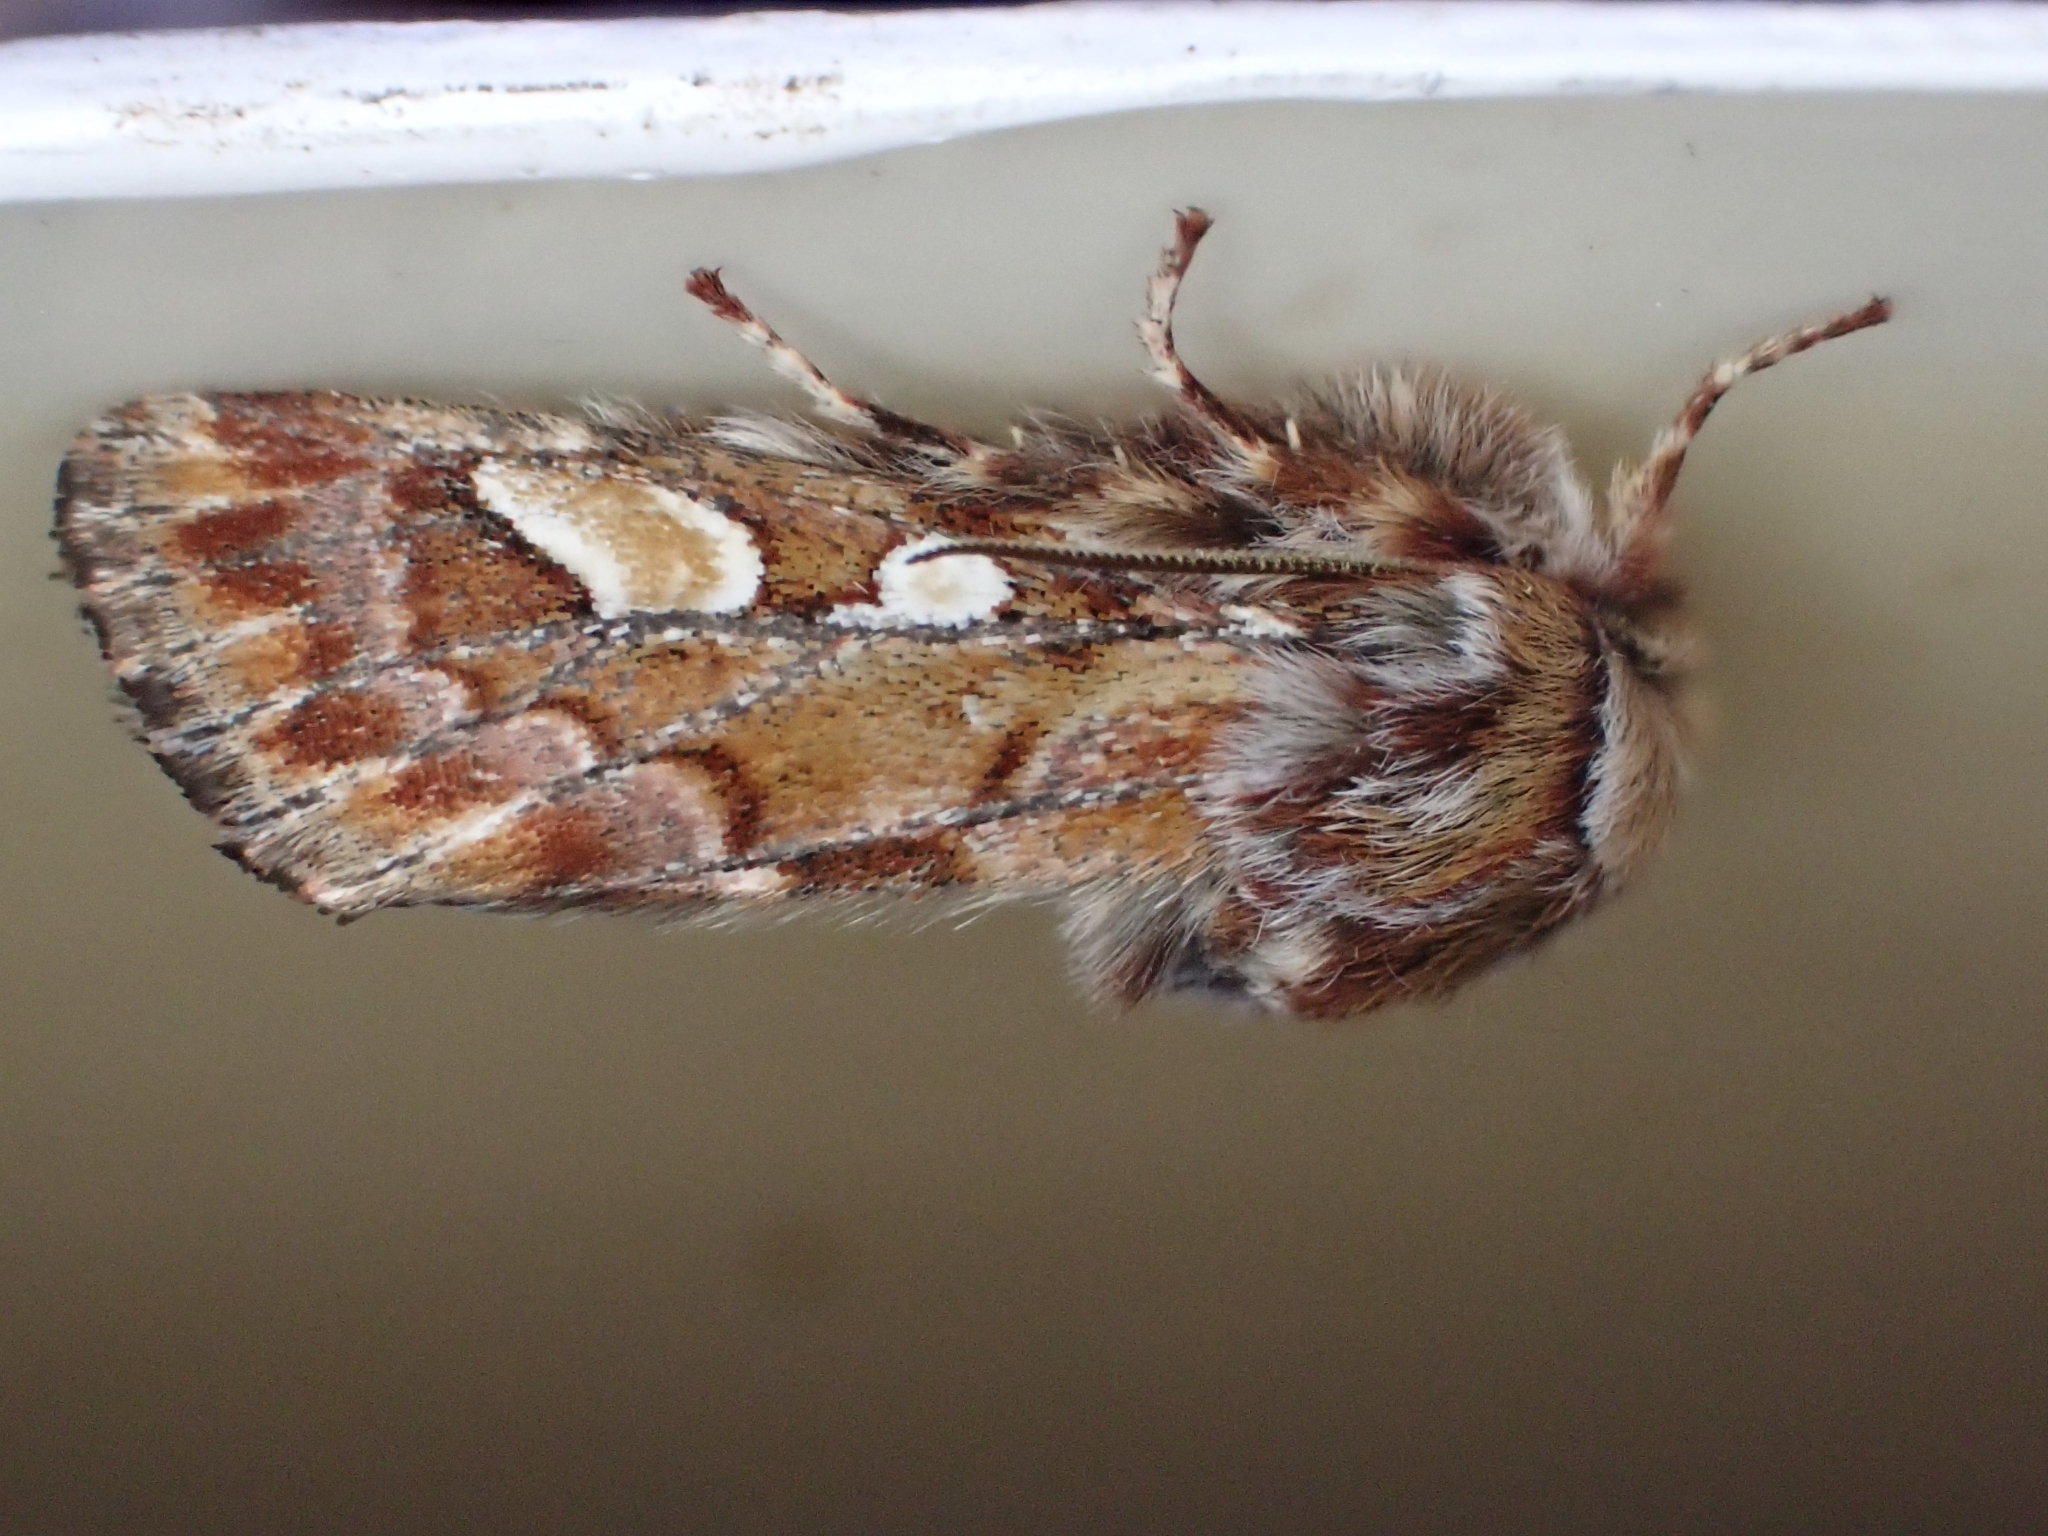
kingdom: Animalia
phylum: Arthropoda
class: Insecta
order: Lepidoptera
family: Noctuidae
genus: Panolis
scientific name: Panolis flammea
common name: Pine beauty
